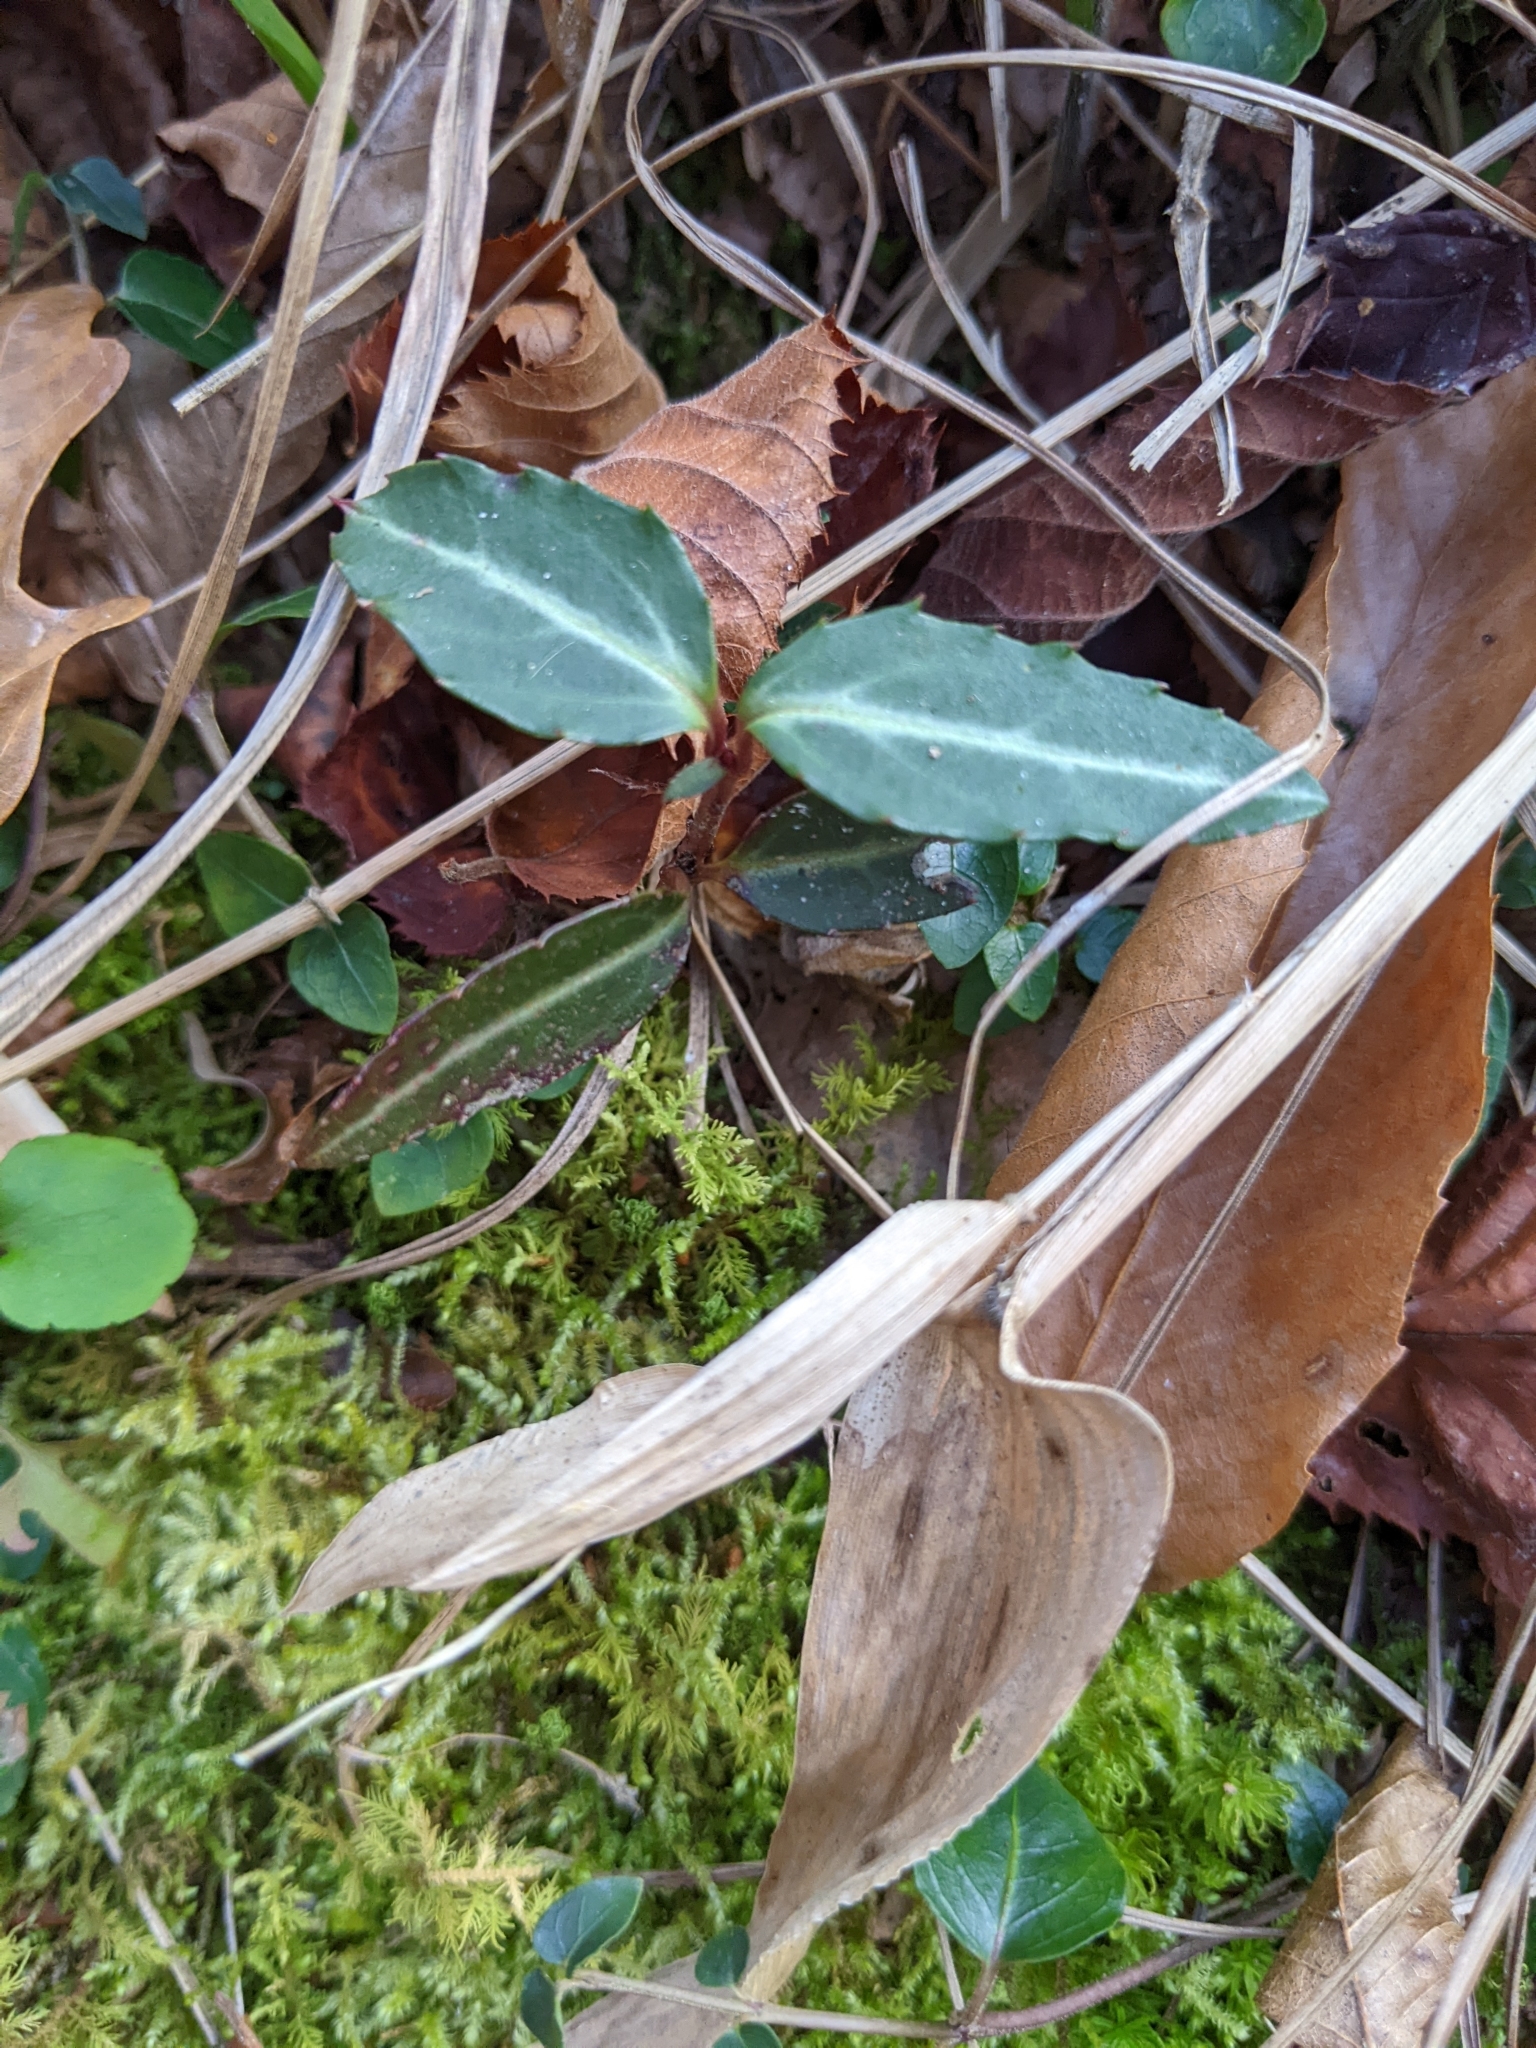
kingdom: Plantae
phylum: Tracheophyta
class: Magnoliopsida
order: Ericales
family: Ericaceae
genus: Chimaphila
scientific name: Chimaphila maculata
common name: Spotted pipsissewa
